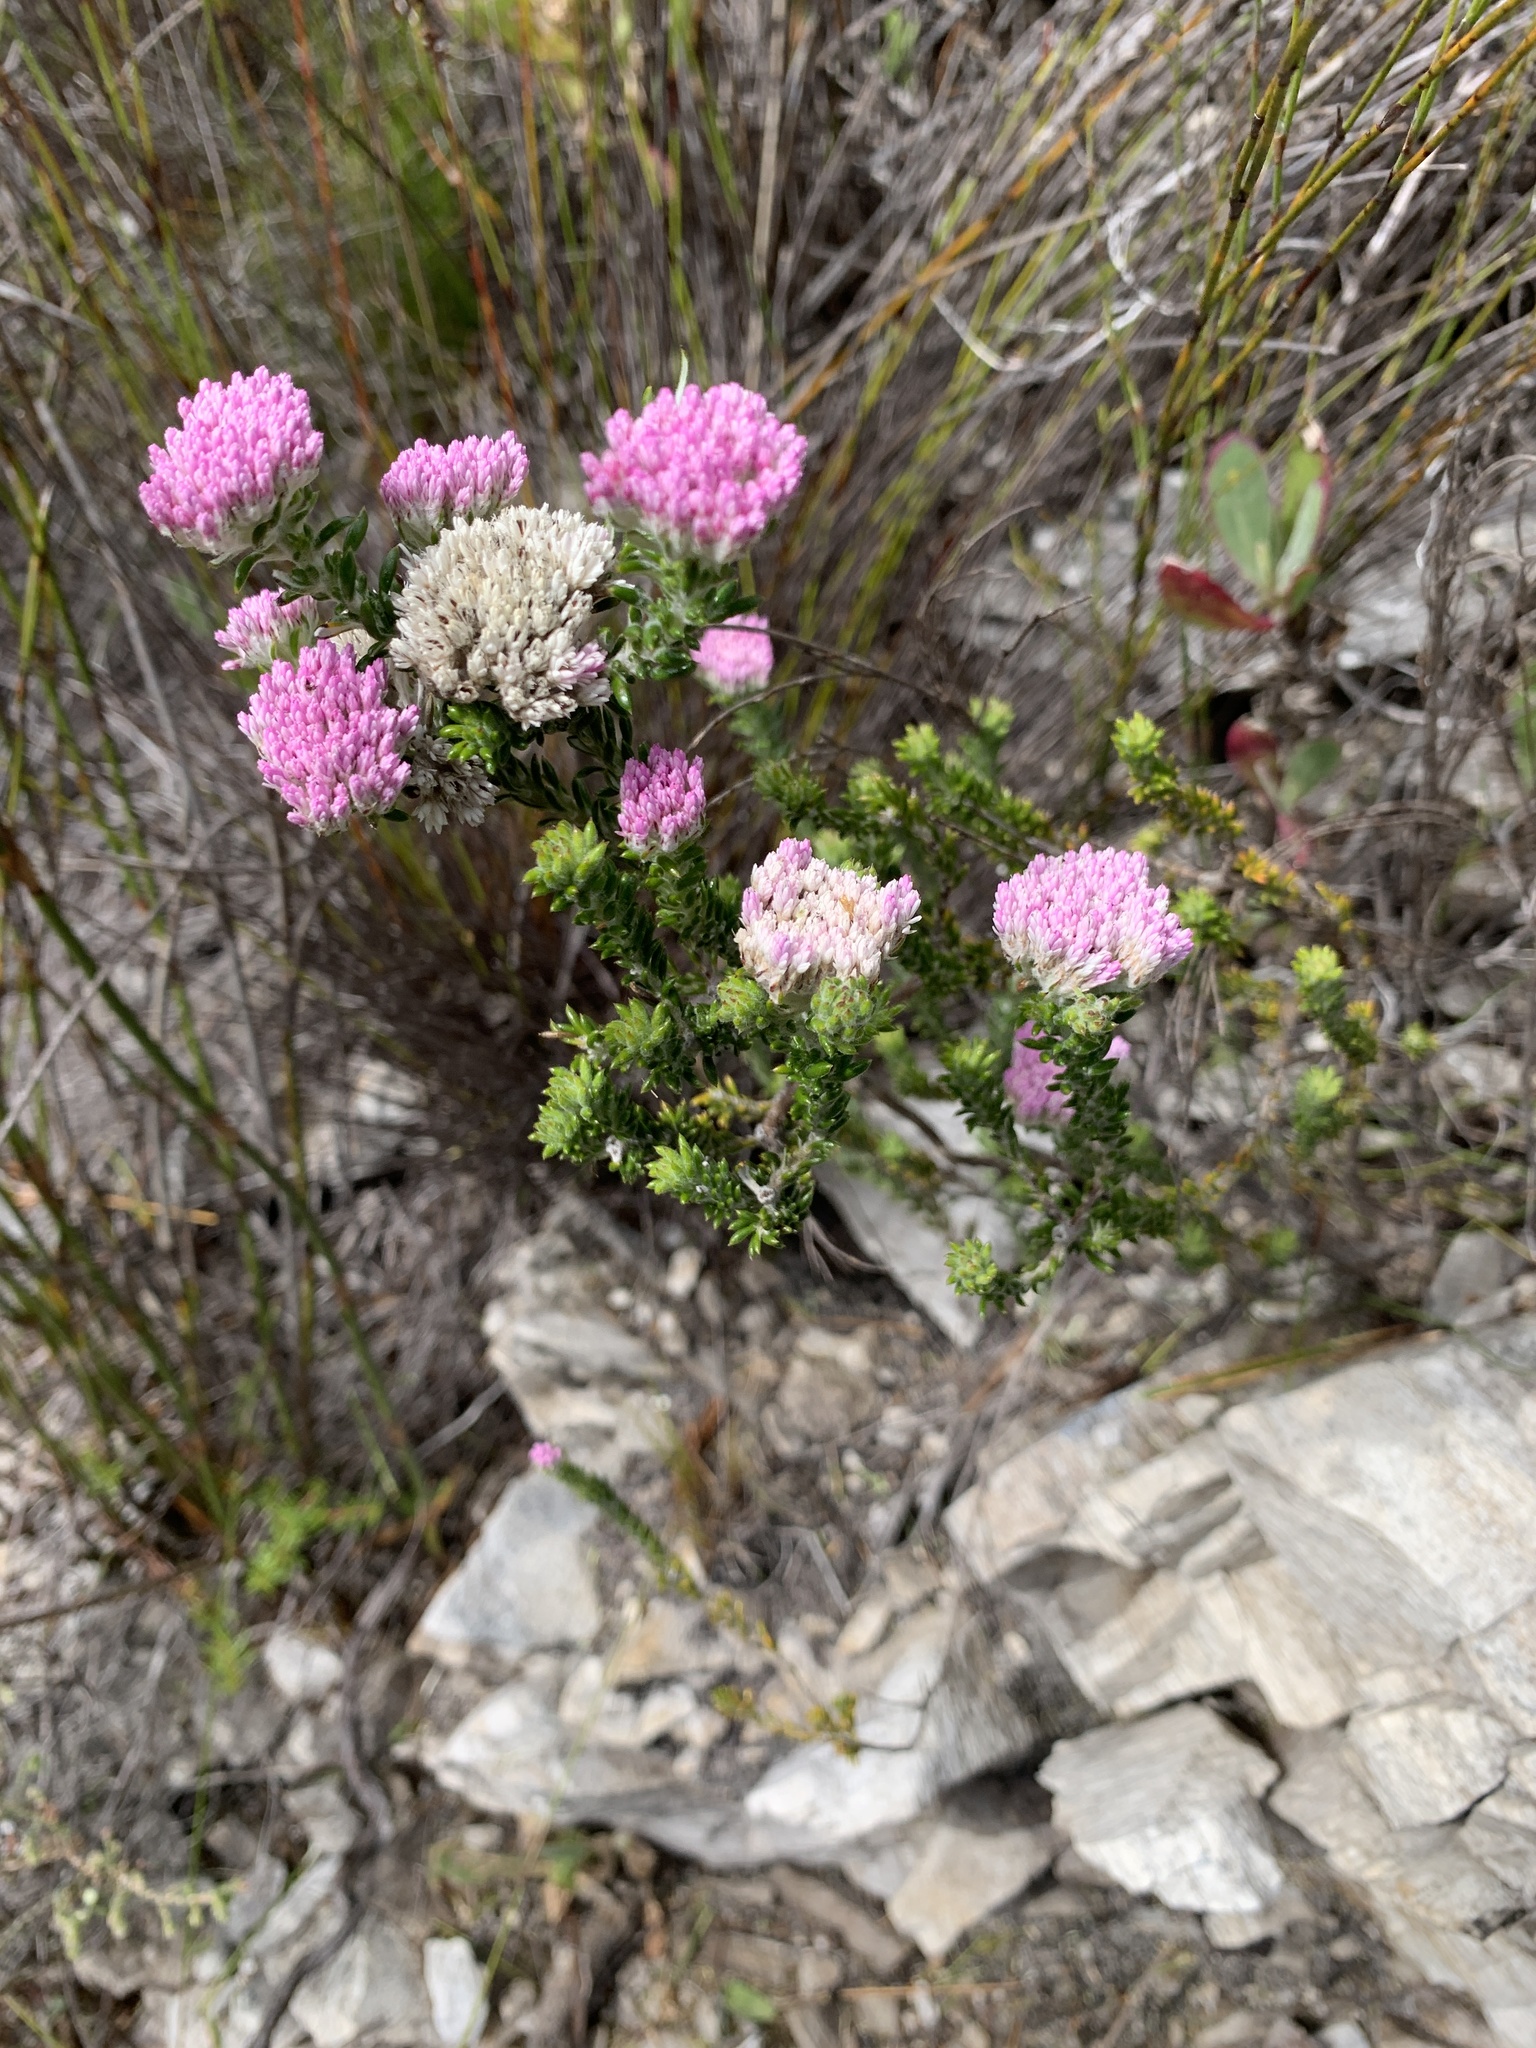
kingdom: Plantae
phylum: Tracheophyta
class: Magnoliopsida
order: Asterales
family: Asteraceae
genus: Metalasia
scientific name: Metalasia erubescens
